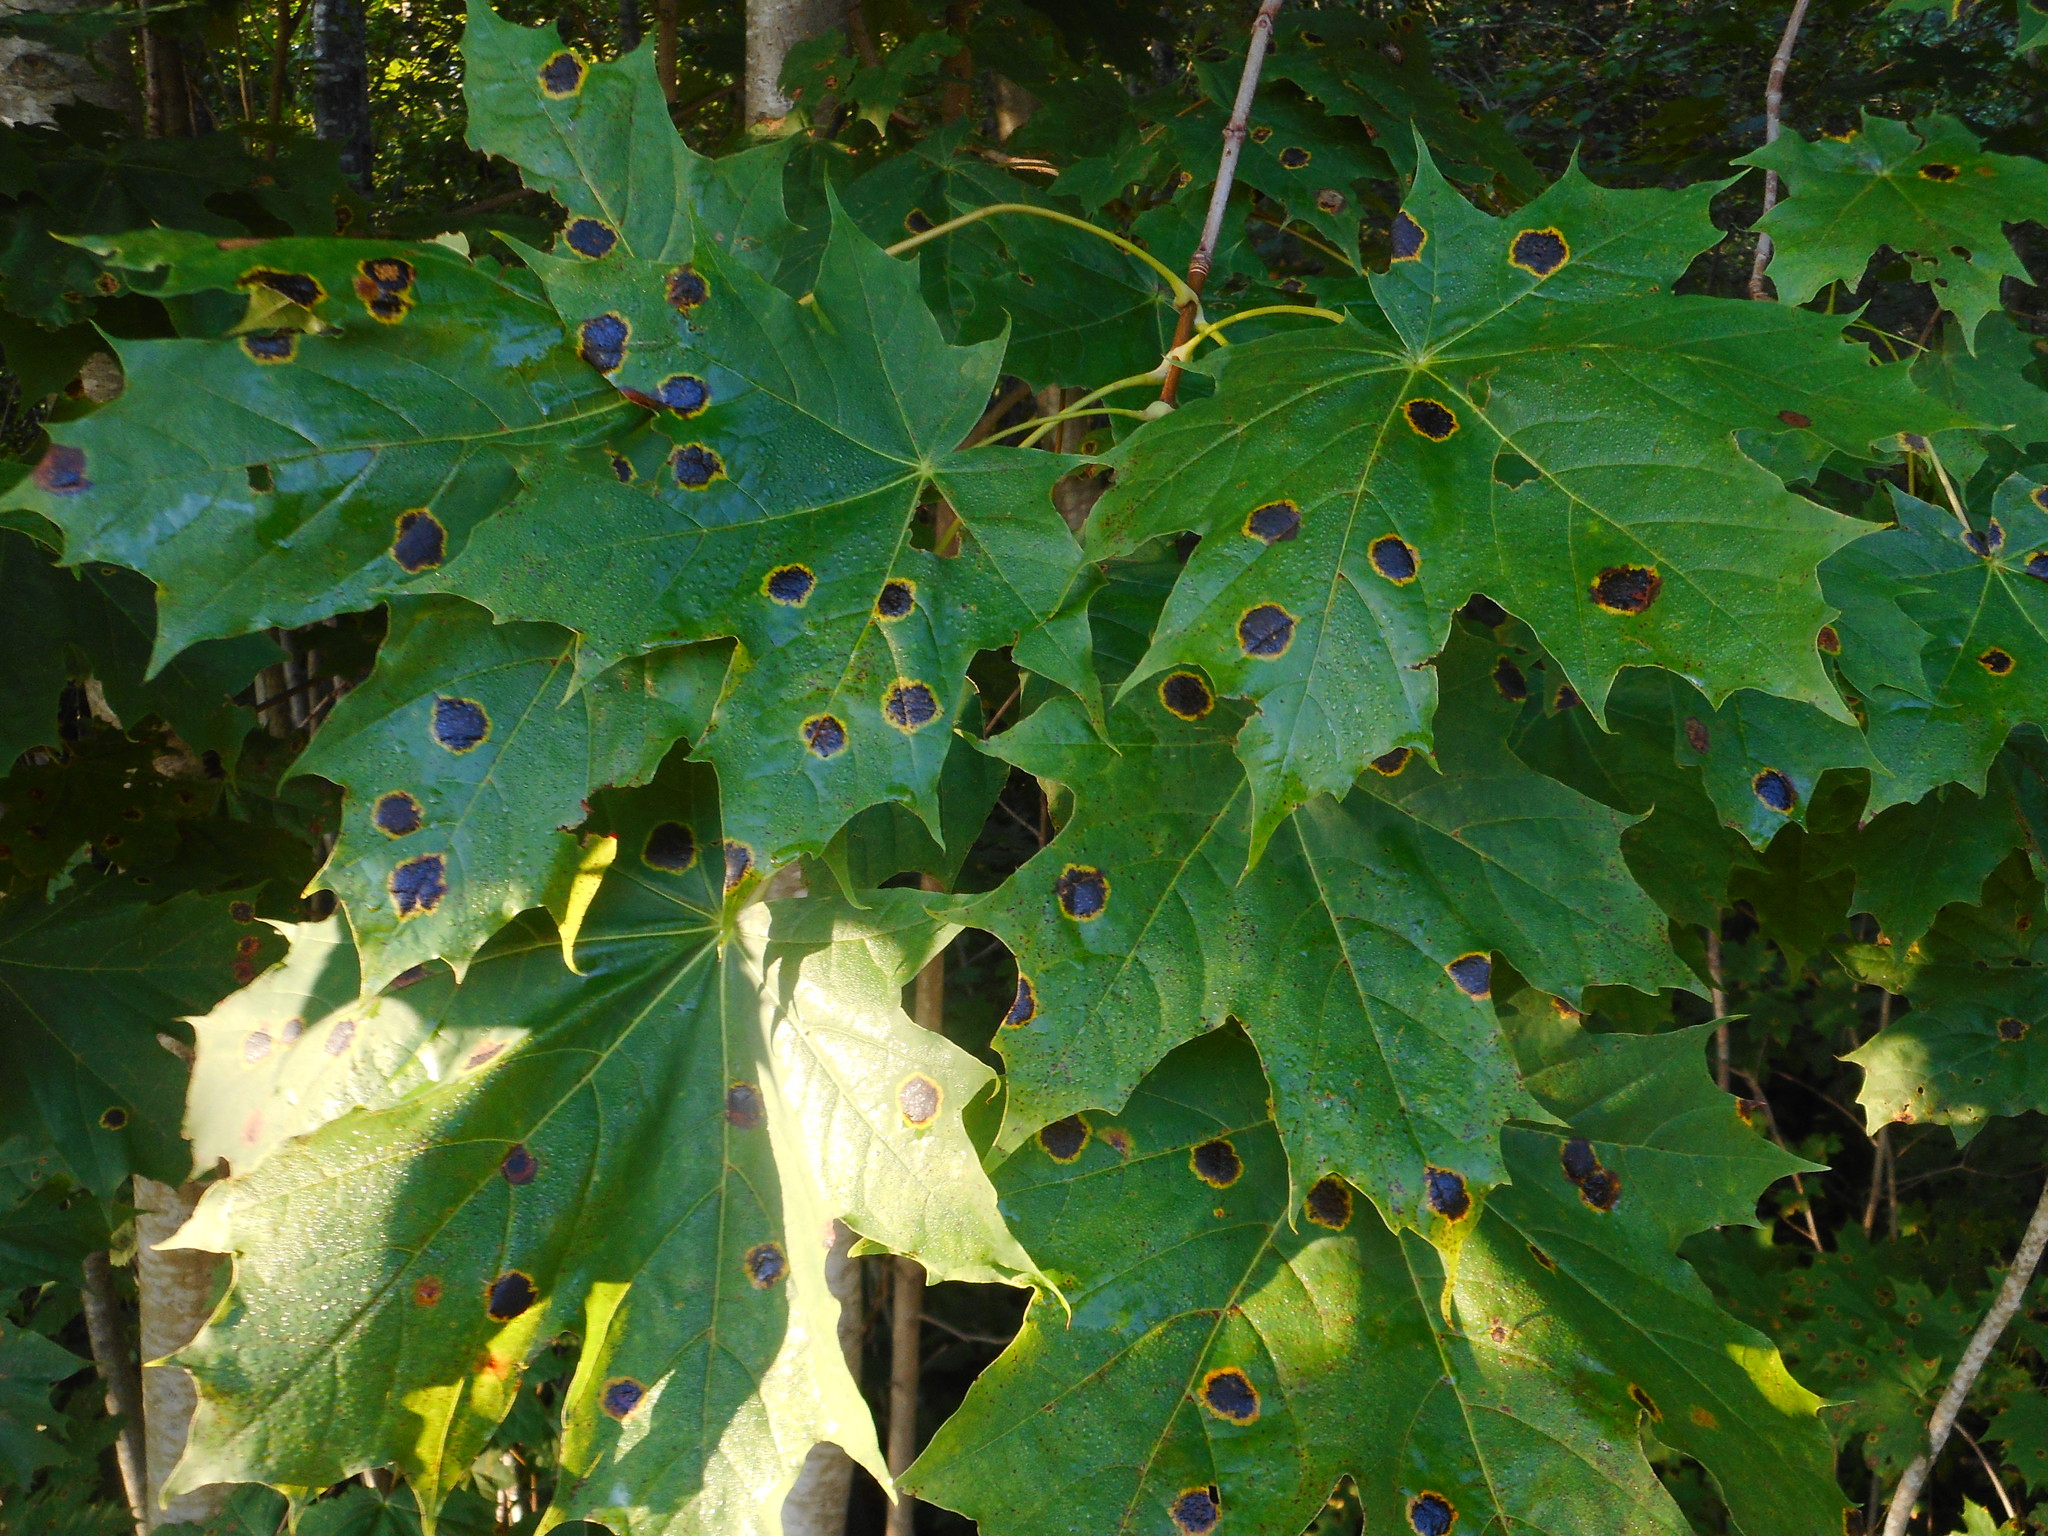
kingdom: Fungi
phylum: Ascomycota
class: Leotiomycetes
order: Rhytismatales
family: Rhytismataceae
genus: Rhytisma
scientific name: Rhytisma acerinum
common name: European tar spot
